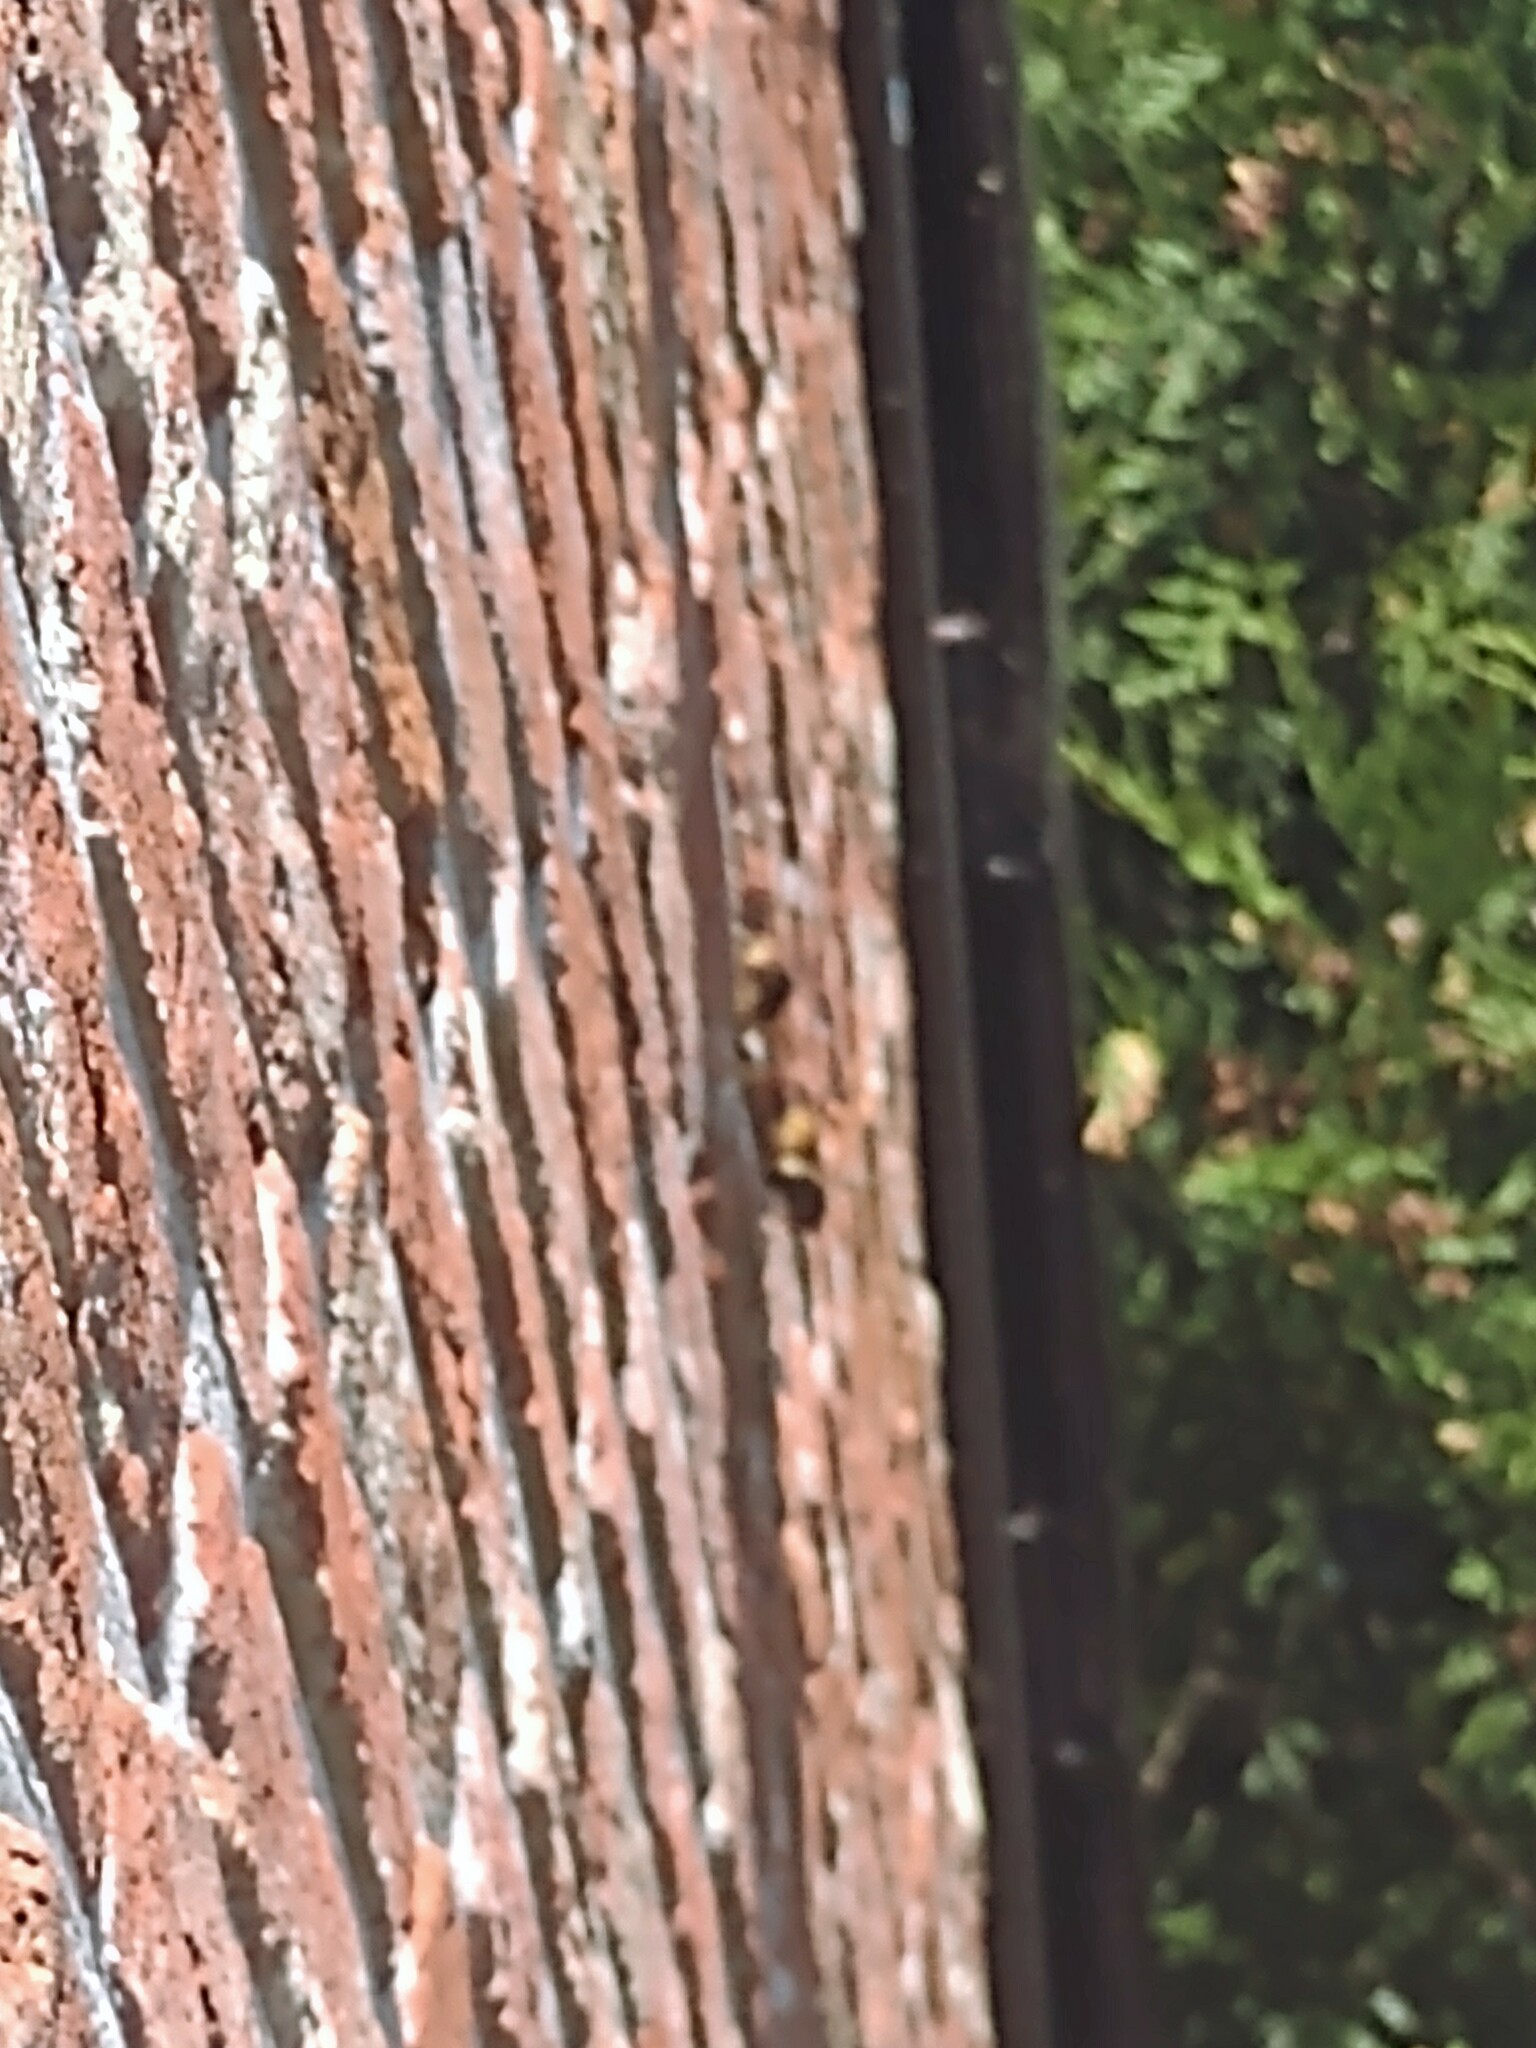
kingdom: Animalia
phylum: Arthropoda
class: Insecta
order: Hymenoptera
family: Vespidae
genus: Vespa
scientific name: Vespa crabro
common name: Hornet
